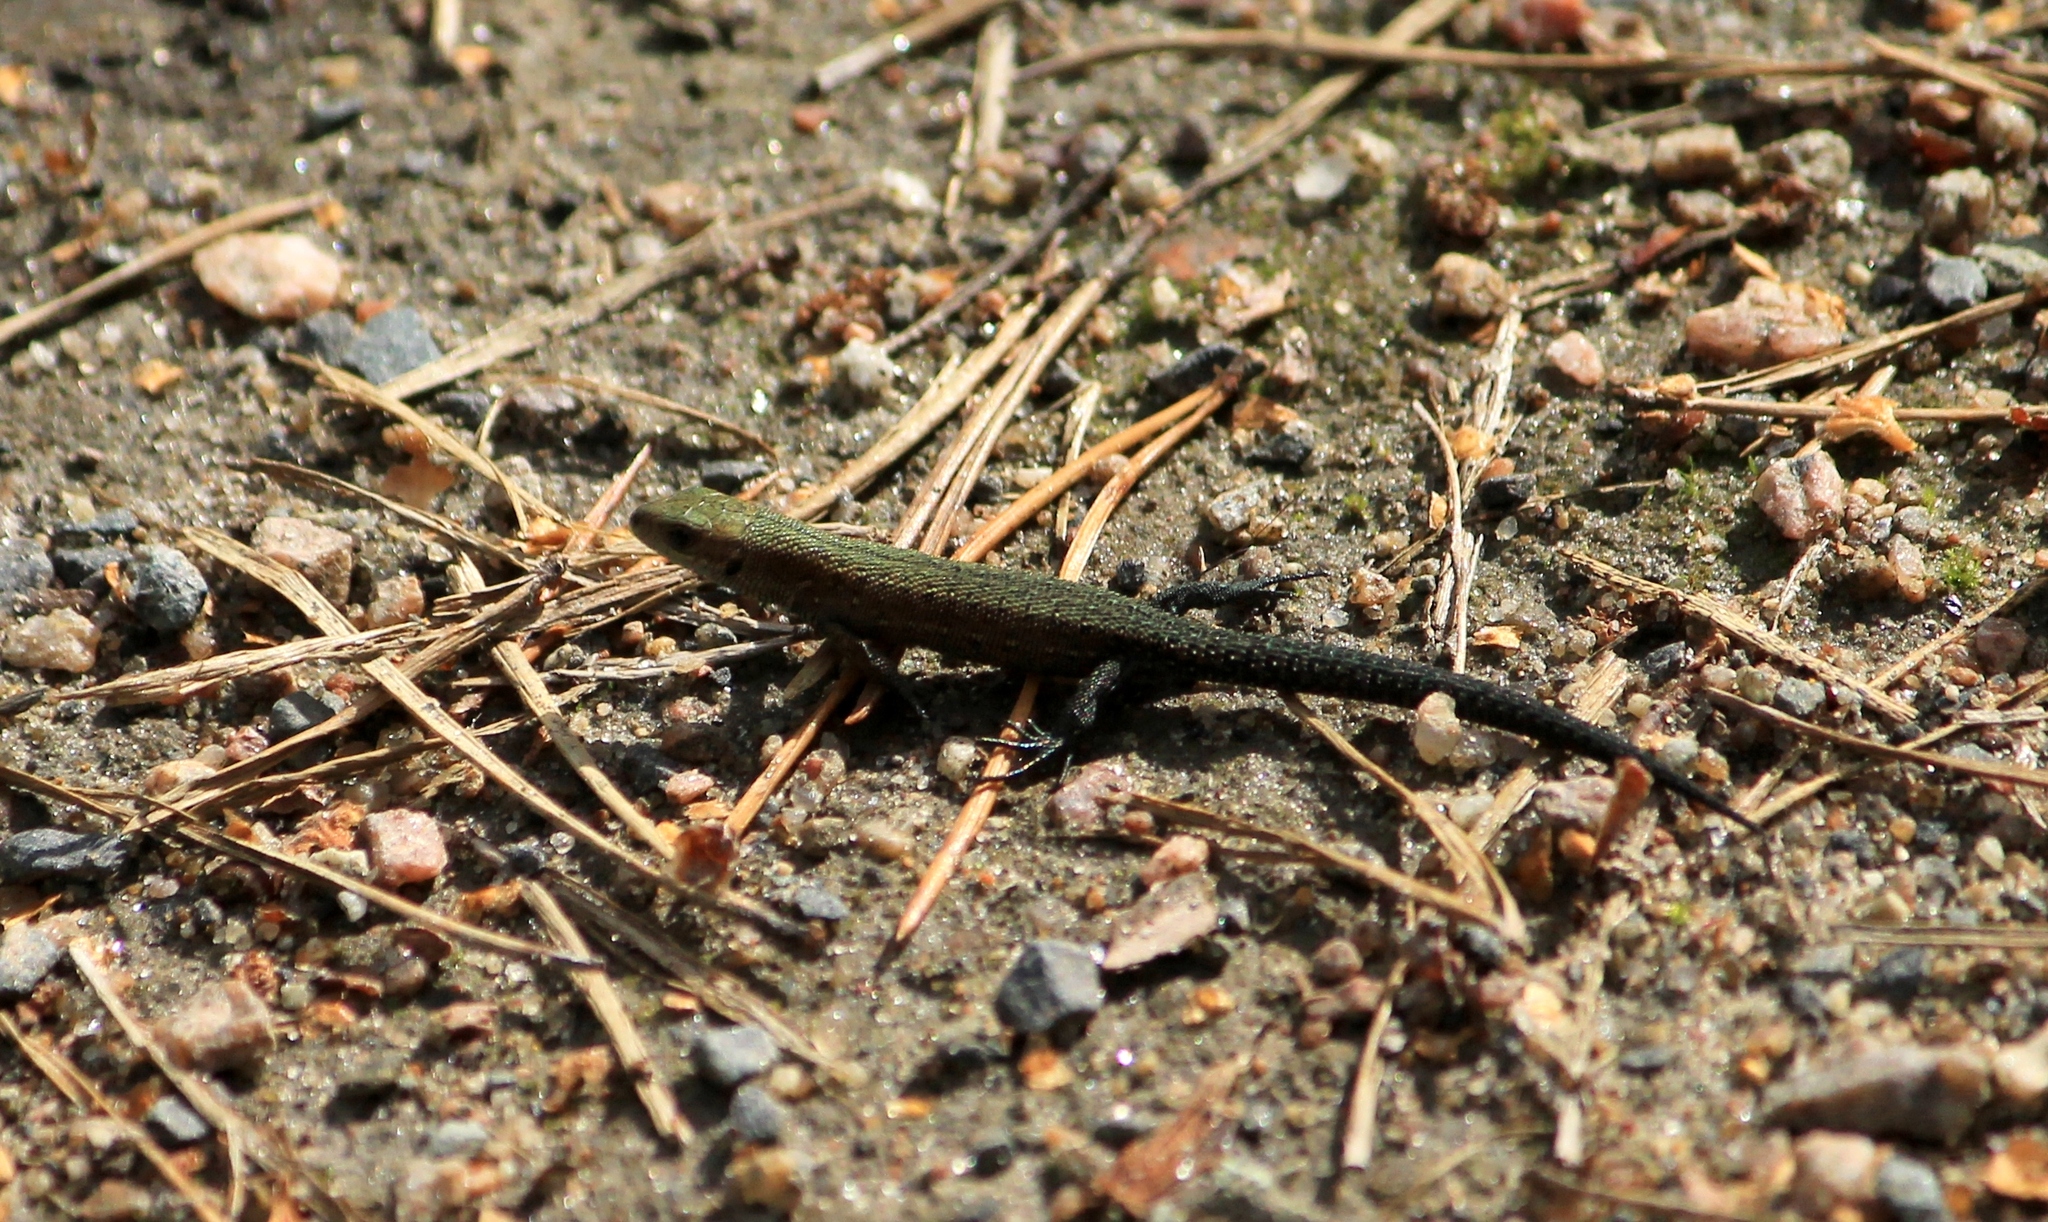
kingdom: Animalia
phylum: Chordata
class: Squamata
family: Lacertidae
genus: Zootoca
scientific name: Zootoca vivipara
